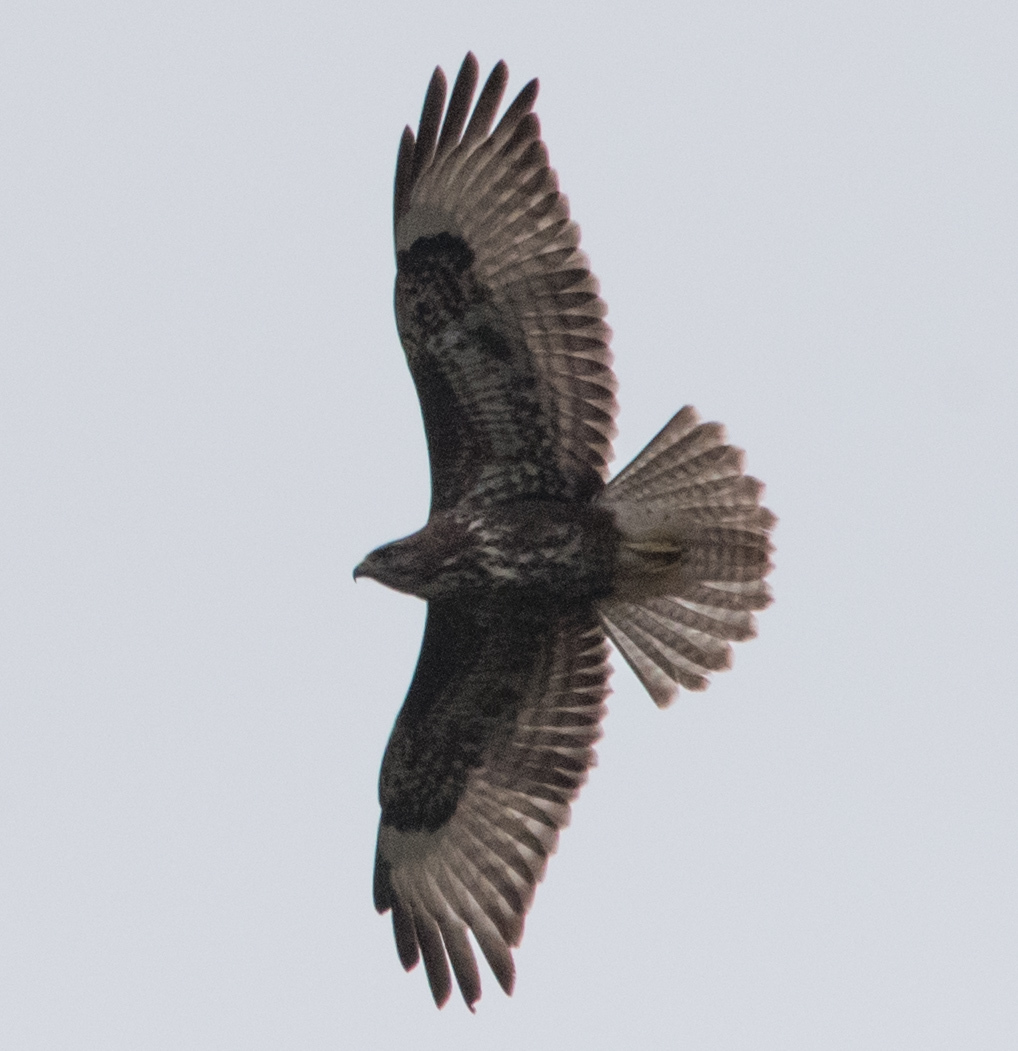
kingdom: Animalia
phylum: Chordata
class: Aves
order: Accipitriformes
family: Accipitridae
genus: Buteo
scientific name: Buteo buteo
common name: Common buzzard
